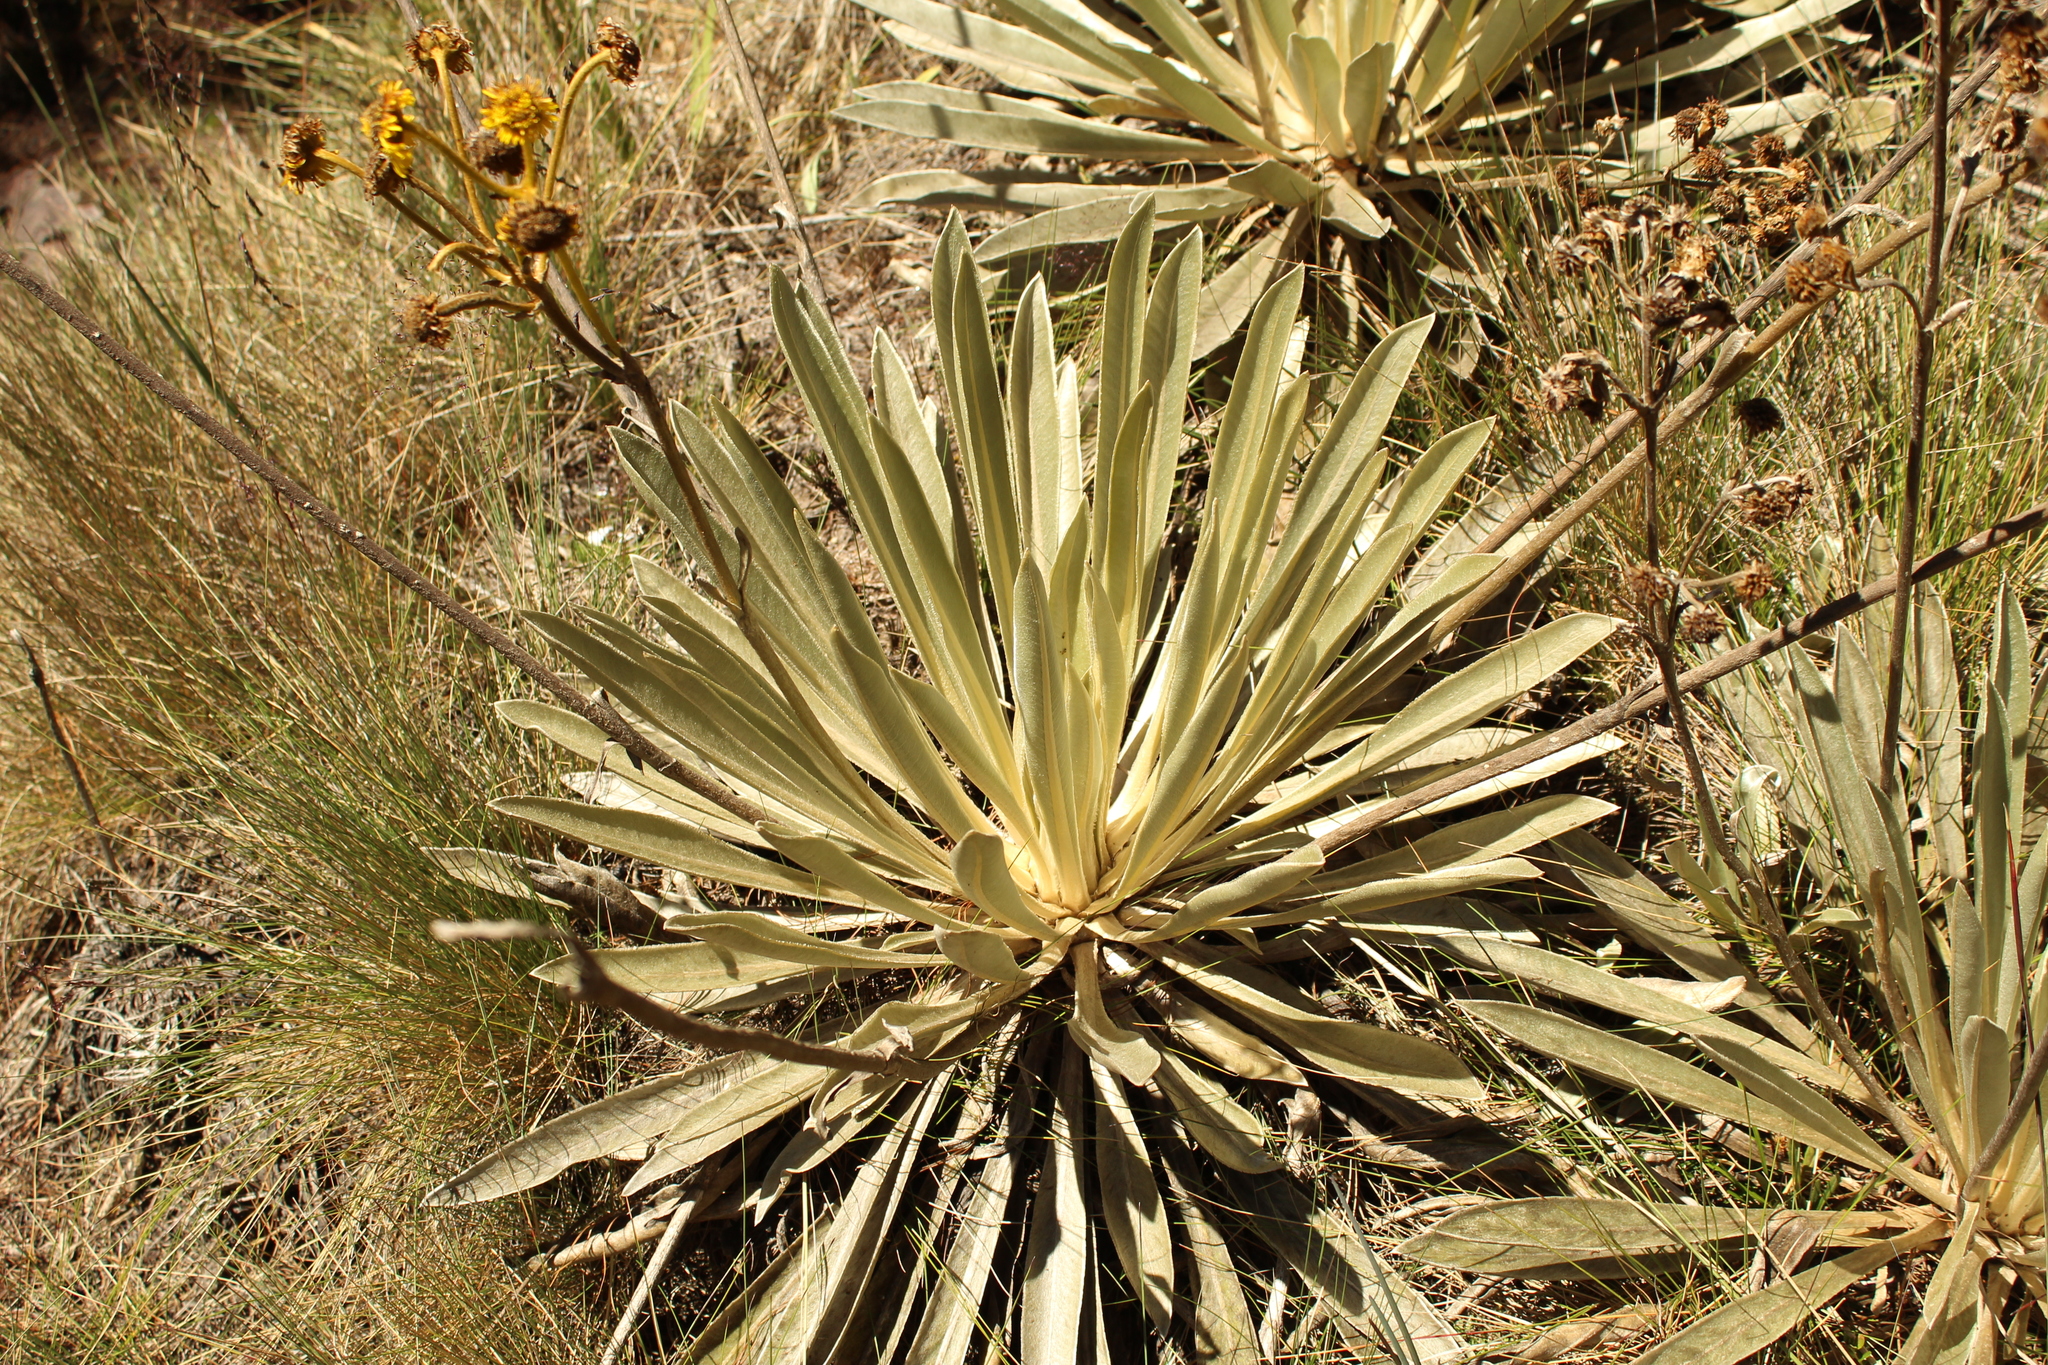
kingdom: Plantae
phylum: Tracheophyta
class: Magnoliopsida
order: Asterales
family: Asteraceae
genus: Espeletia
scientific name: Espeletia boyacensis
